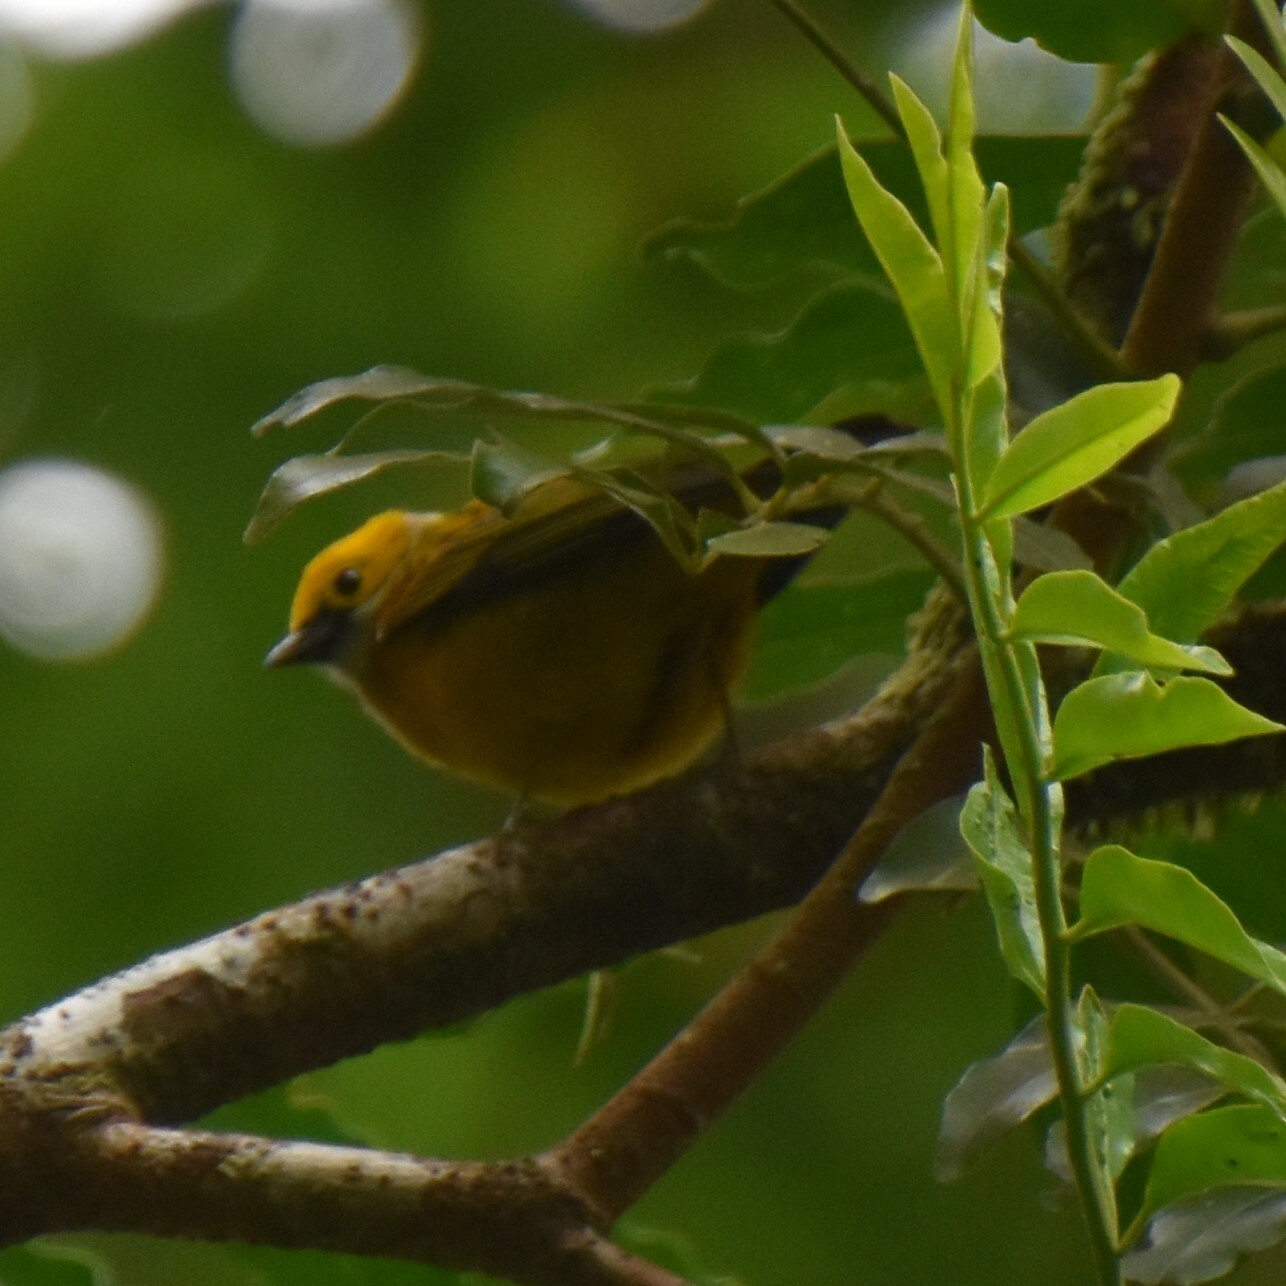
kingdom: Animalia
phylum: Chordata
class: Aves
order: Passeriformes
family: Thraupidae
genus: Tangara
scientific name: Tangara icterocephala
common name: Silver-throated tanager
